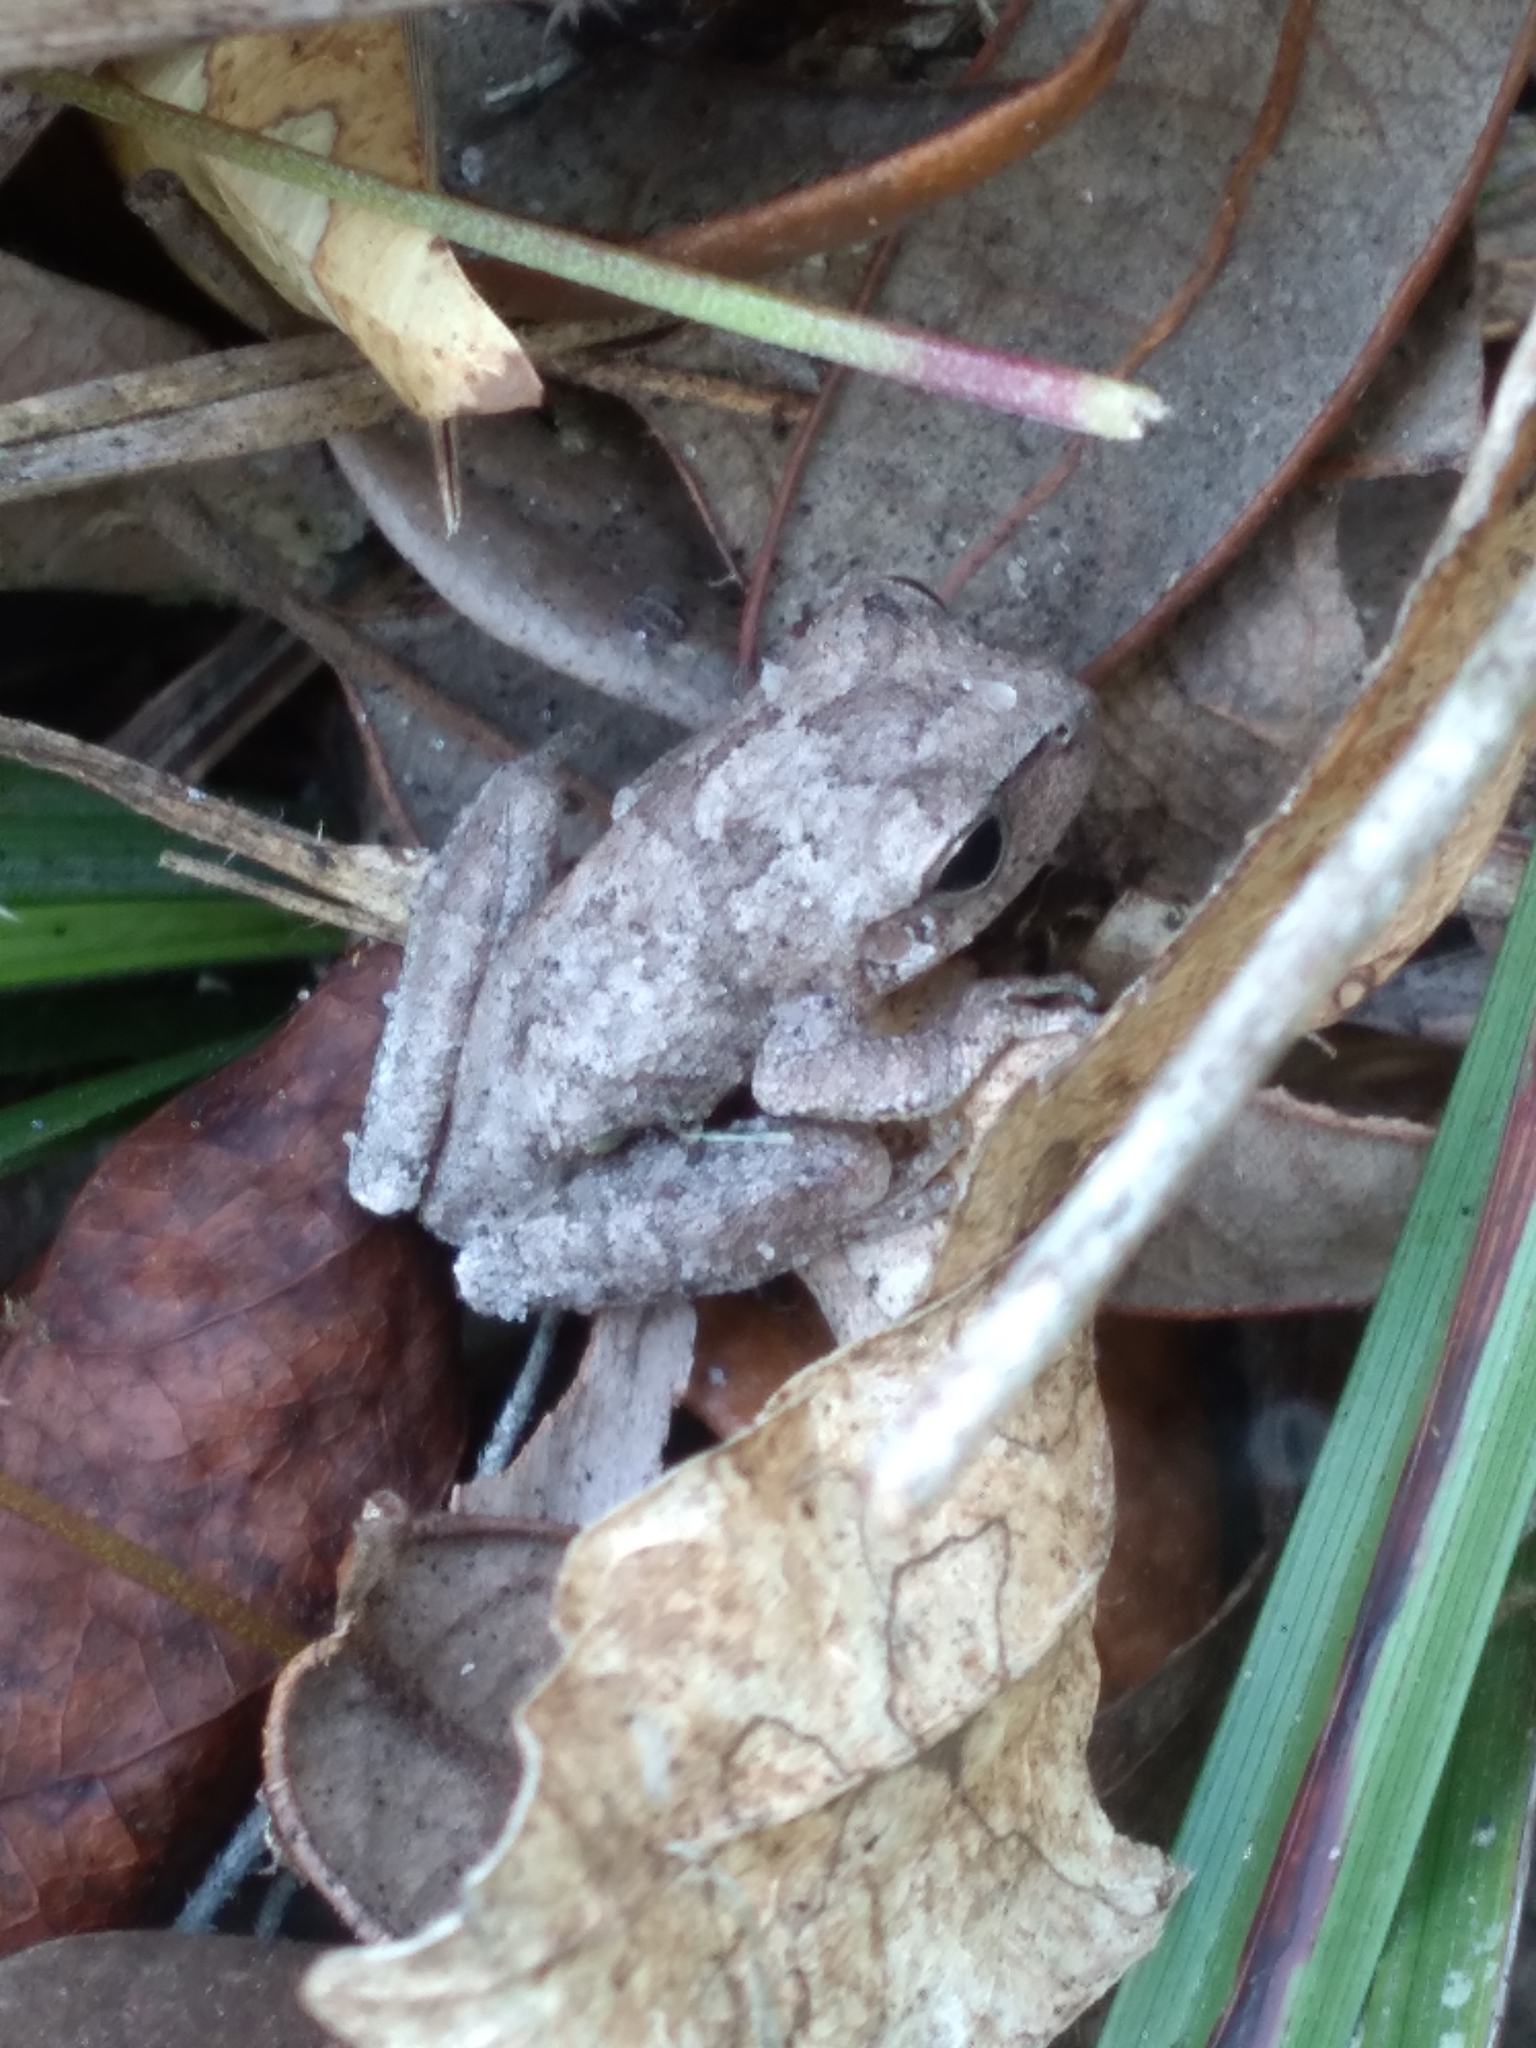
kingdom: Animalia
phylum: Chordata
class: Amphibia
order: Anura
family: Hylidae
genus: Hyla
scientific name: Hyla femoralis
